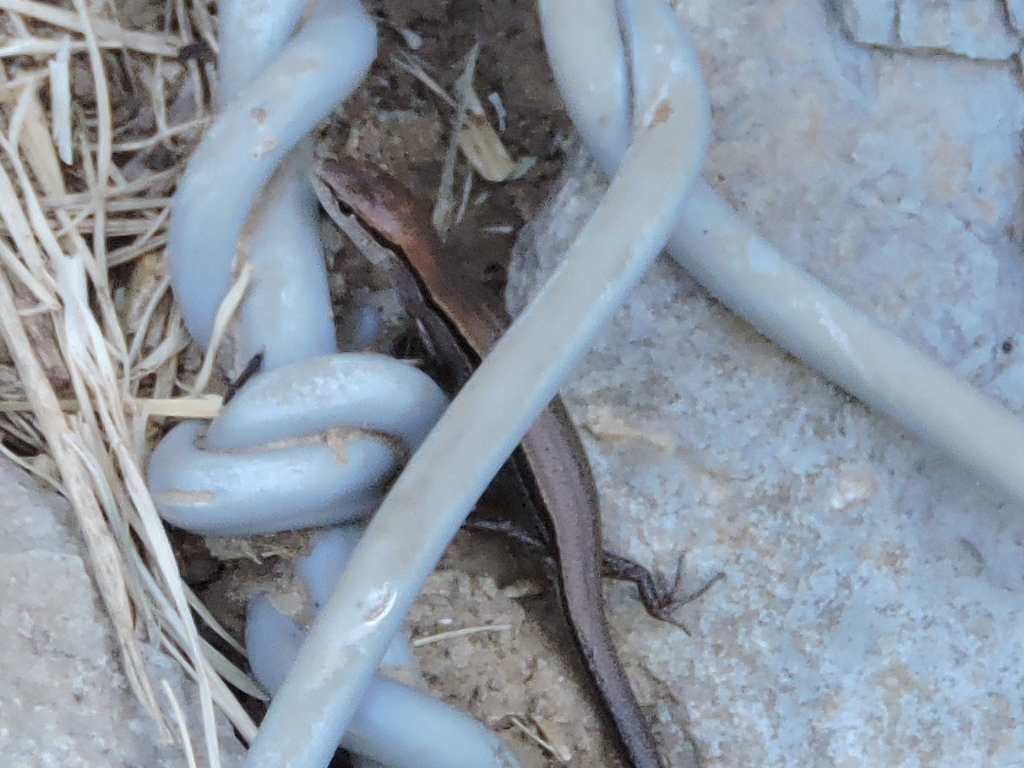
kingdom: Animalia
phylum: Chordata
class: Squamata
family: Scincidae
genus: Scincella
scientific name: Scincella lateralis
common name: Ground skink
